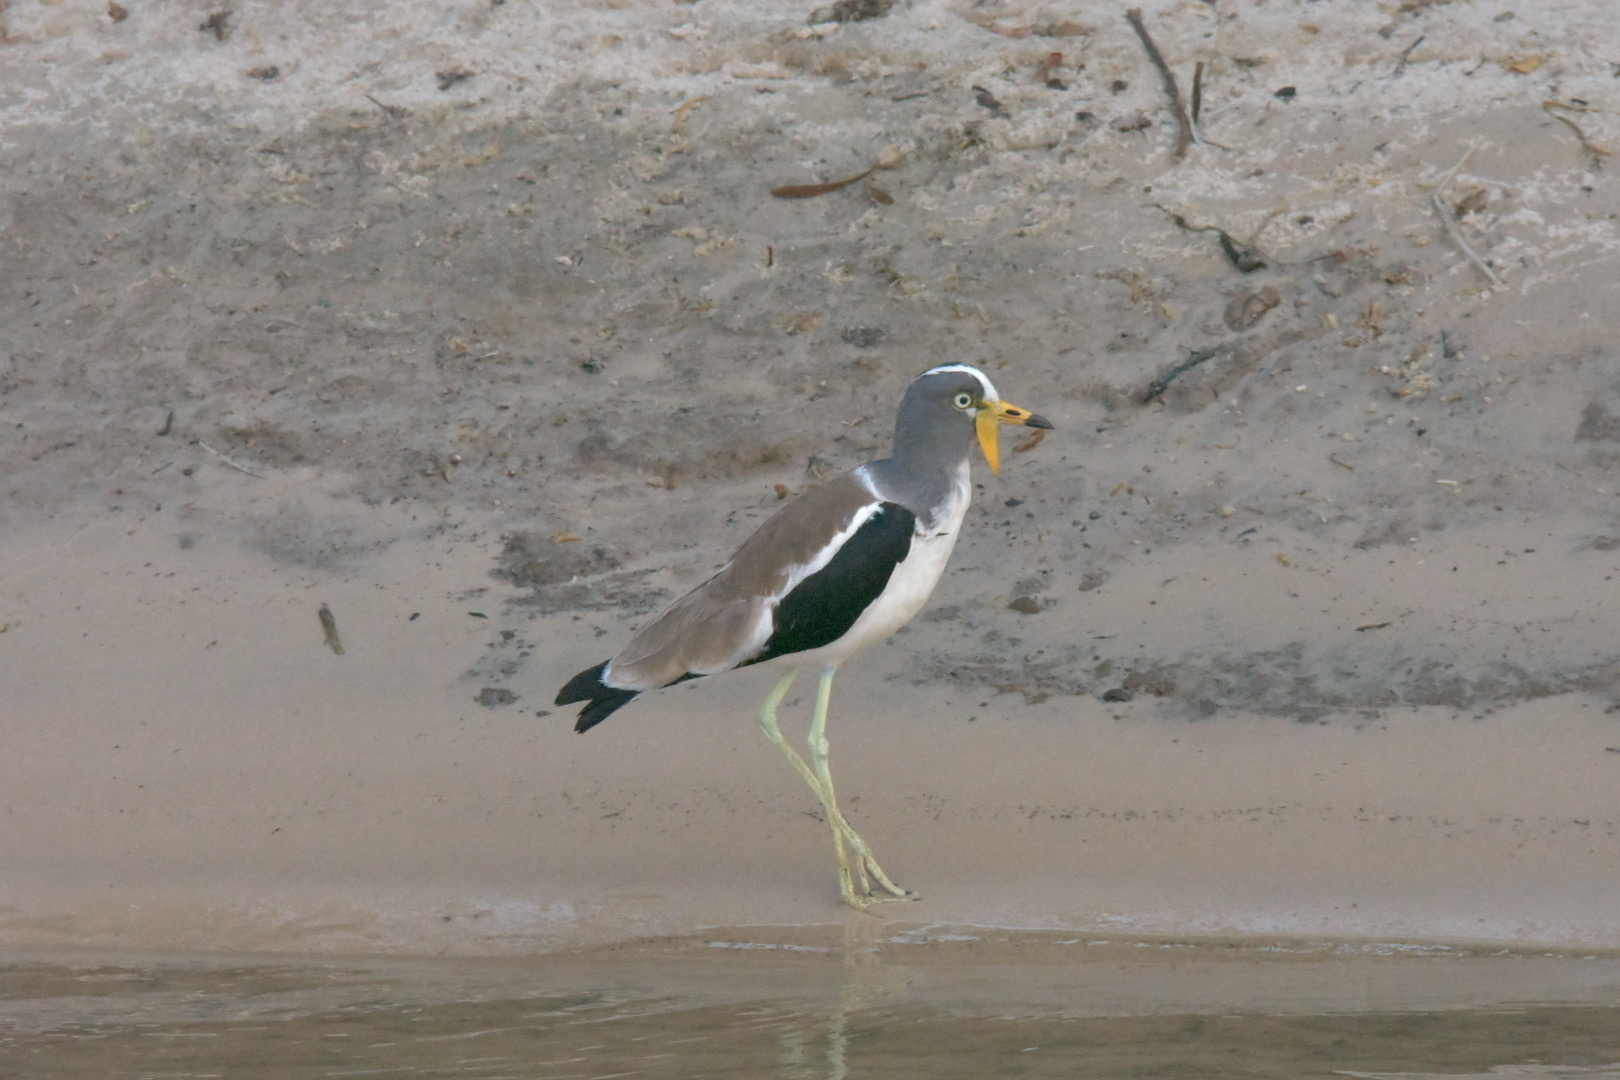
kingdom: Animalia
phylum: Chordata
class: Aves
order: Charadriiformes
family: Charadriidae
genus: Vanellus
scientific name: Vanellus albiceps
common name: White-crowned lapwing
